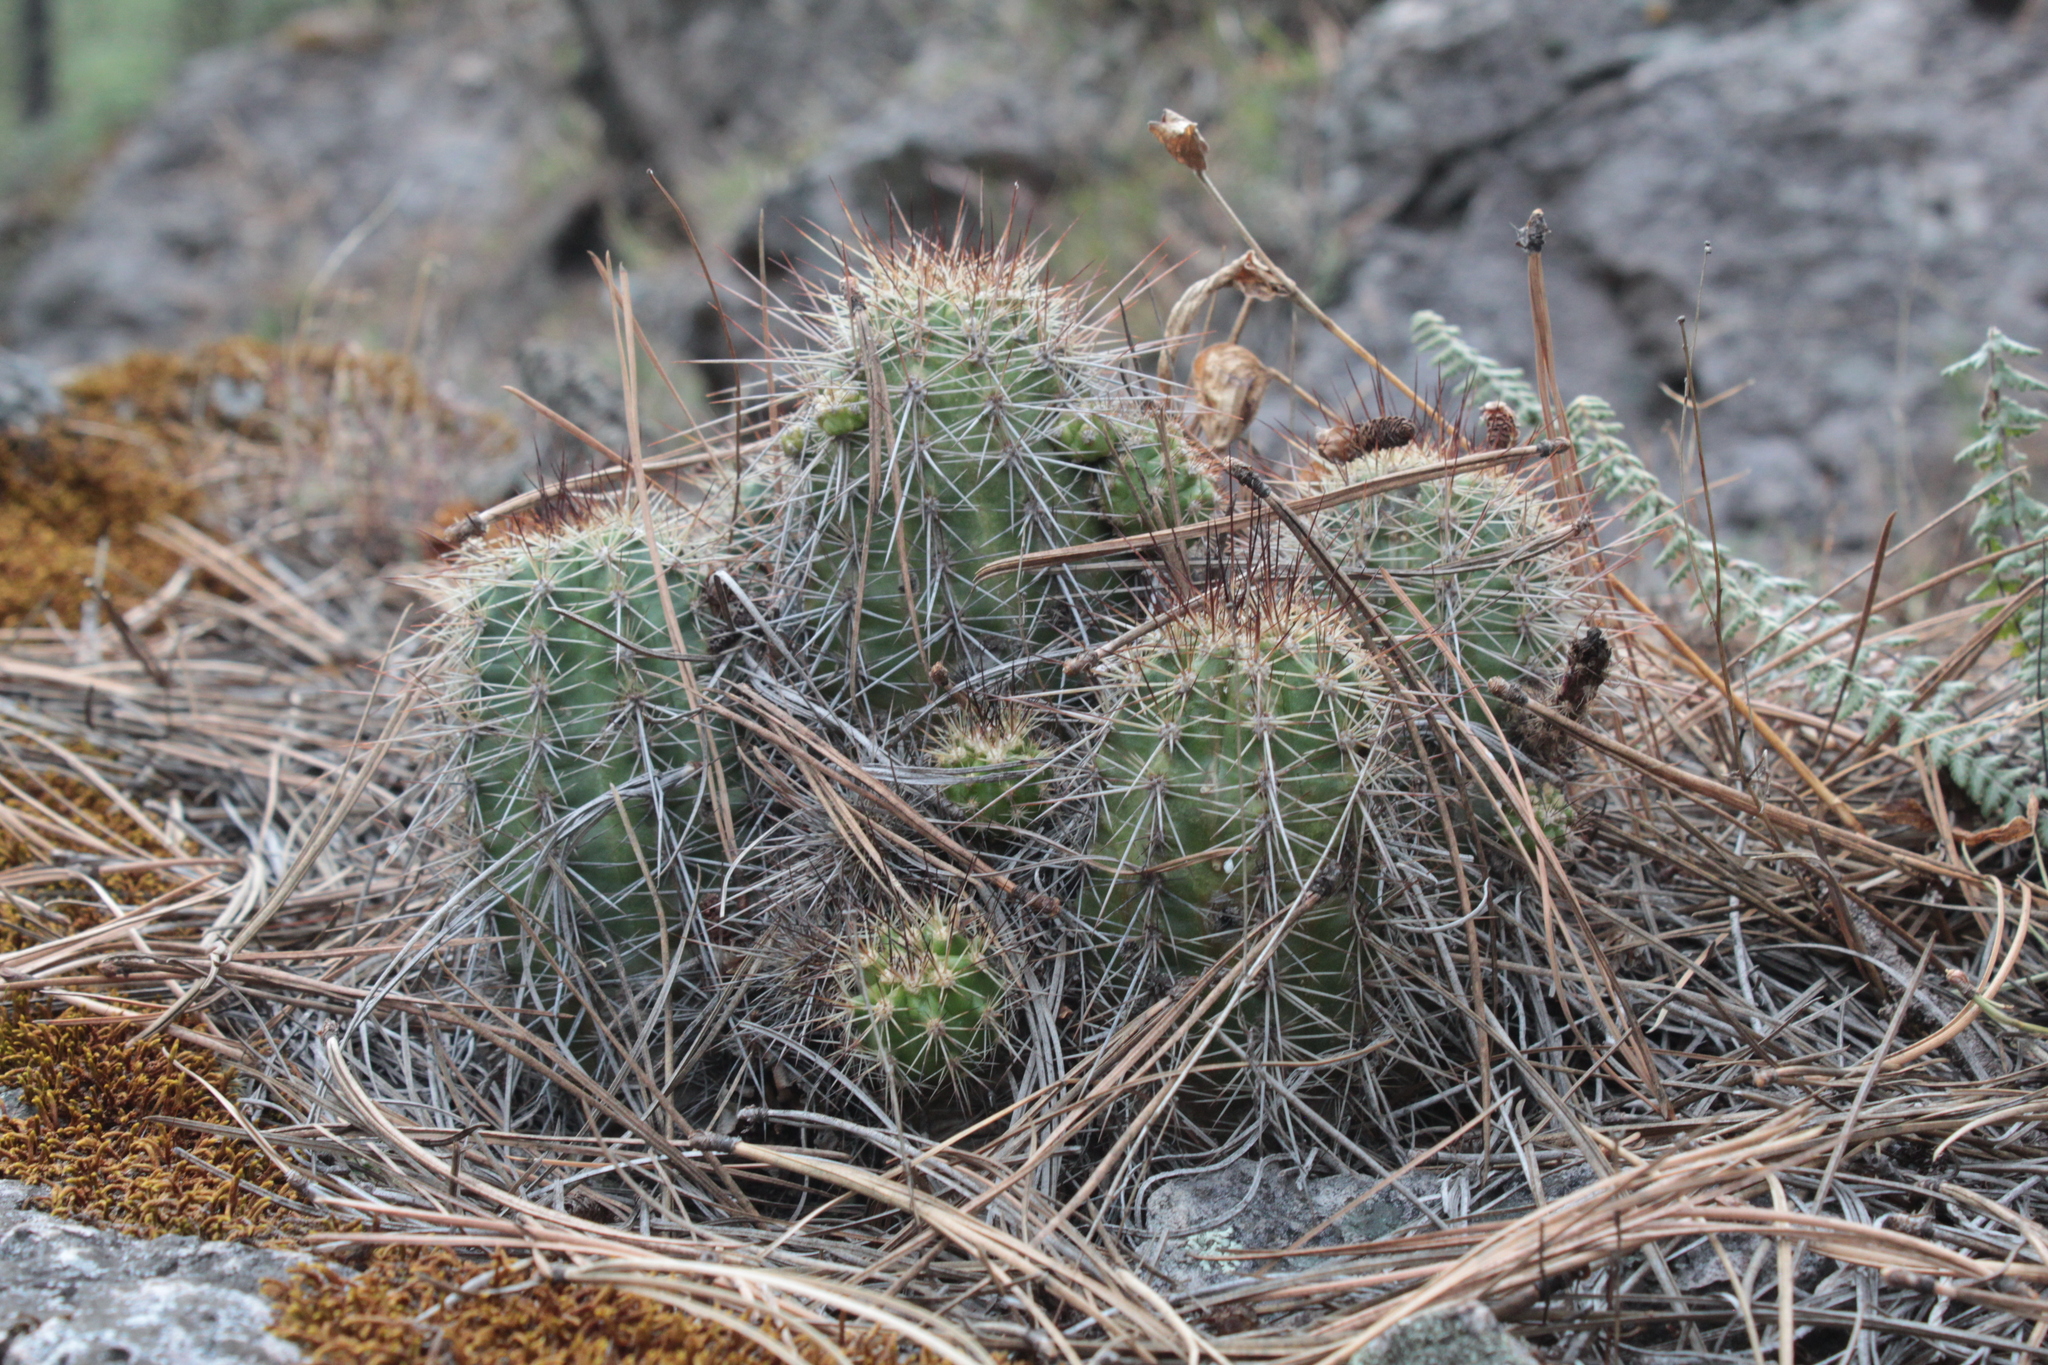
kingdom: Plantae
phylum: Tracheophyta
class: Magnoliopsida
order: Caryophyllales
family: Cactaceae
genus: Echinocereus
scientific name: Echinocereus polyacanthus
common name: Mojave mound cactus
